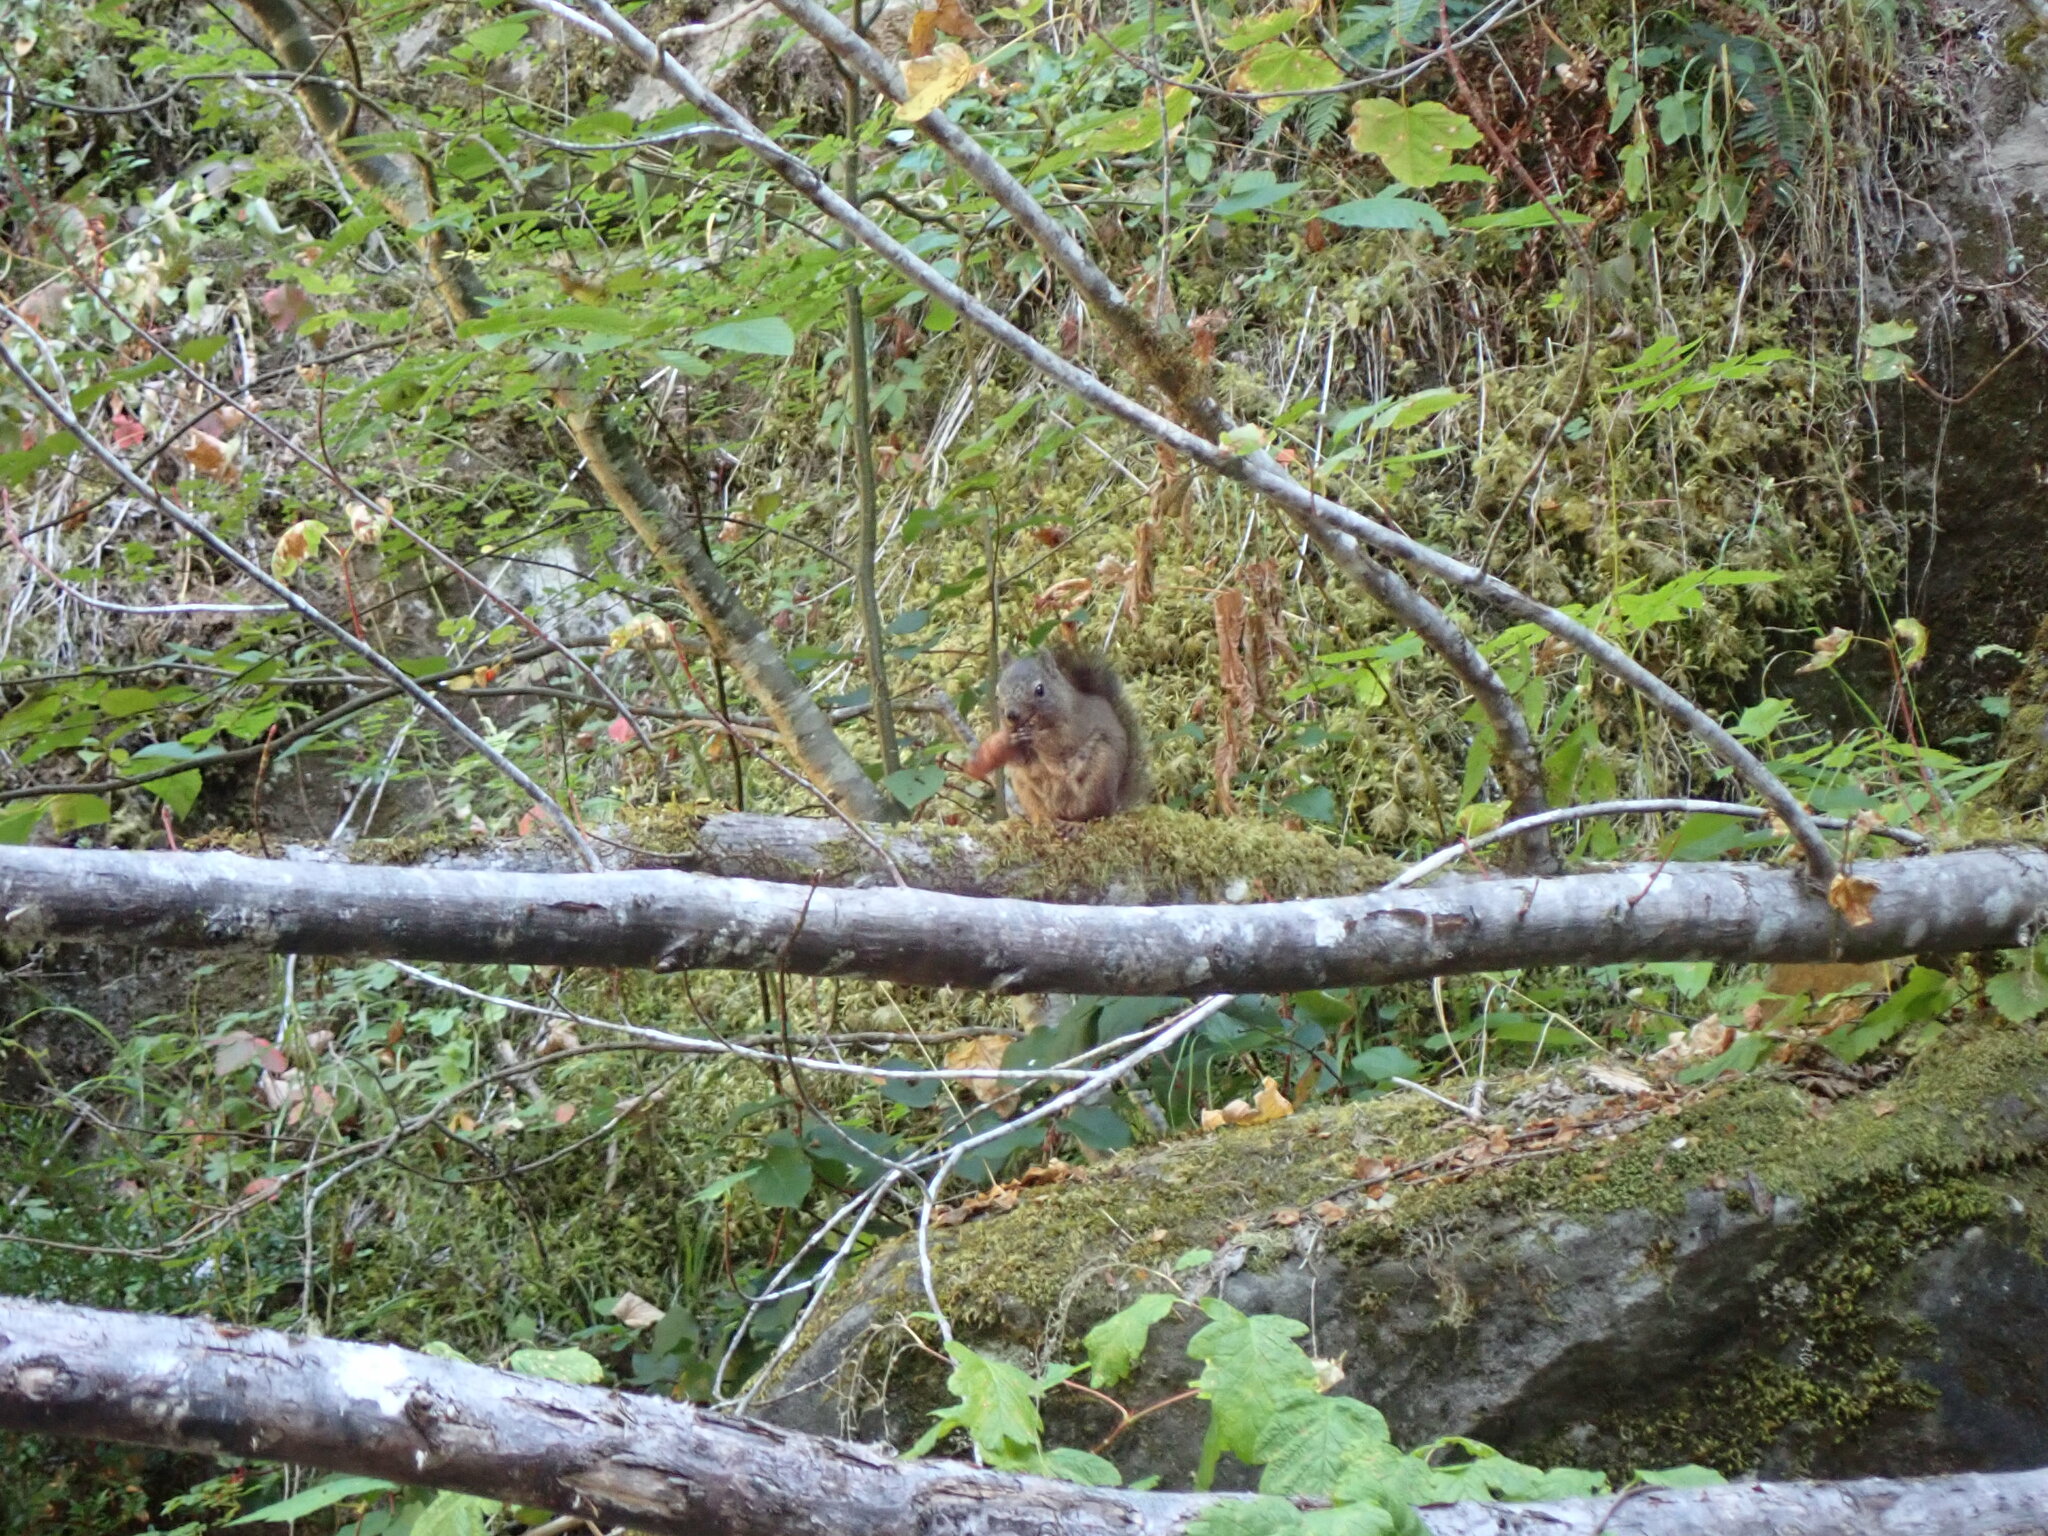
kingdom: Animalia
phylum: Chordata
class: Mammalia
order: Rodentia
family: Sciuridae
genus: Tamiasciurus
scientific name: Tamiasciurus hudsonicus
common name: Red squirrel
